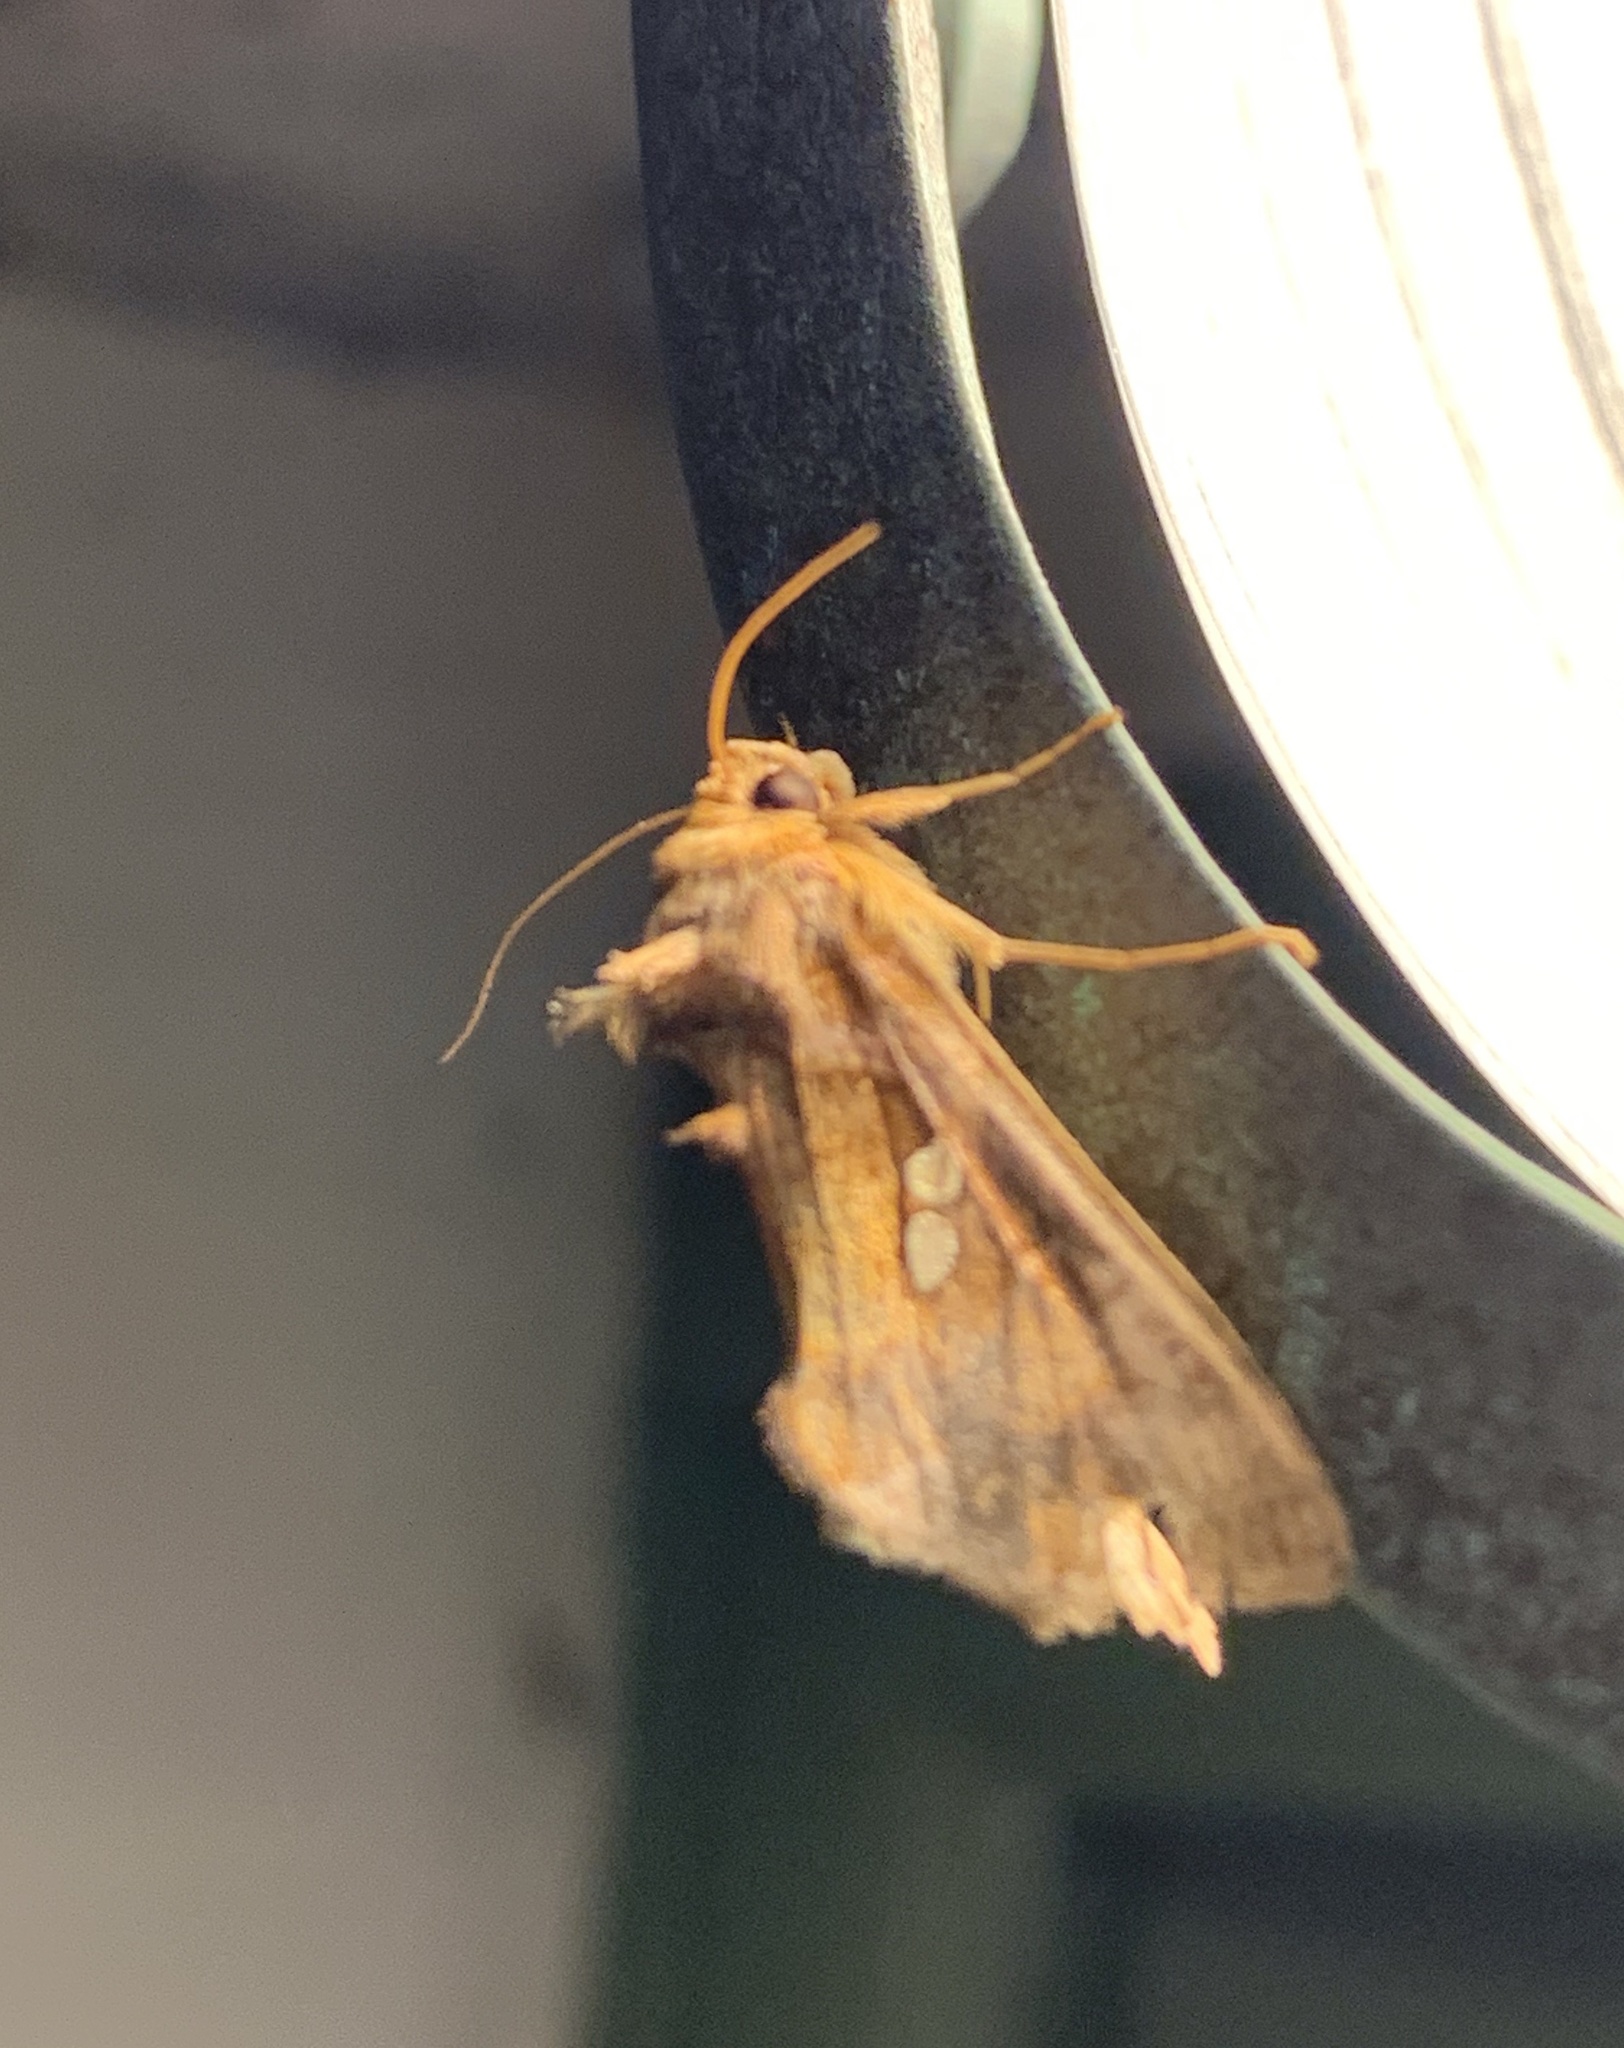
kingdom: Animalia
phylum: Arthropoda
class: Insecta
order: Lepidoptera
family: Noctuidae
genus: Chrysodeixis
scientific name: Chrysodeixis chalcites
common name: Golden twin-spot
